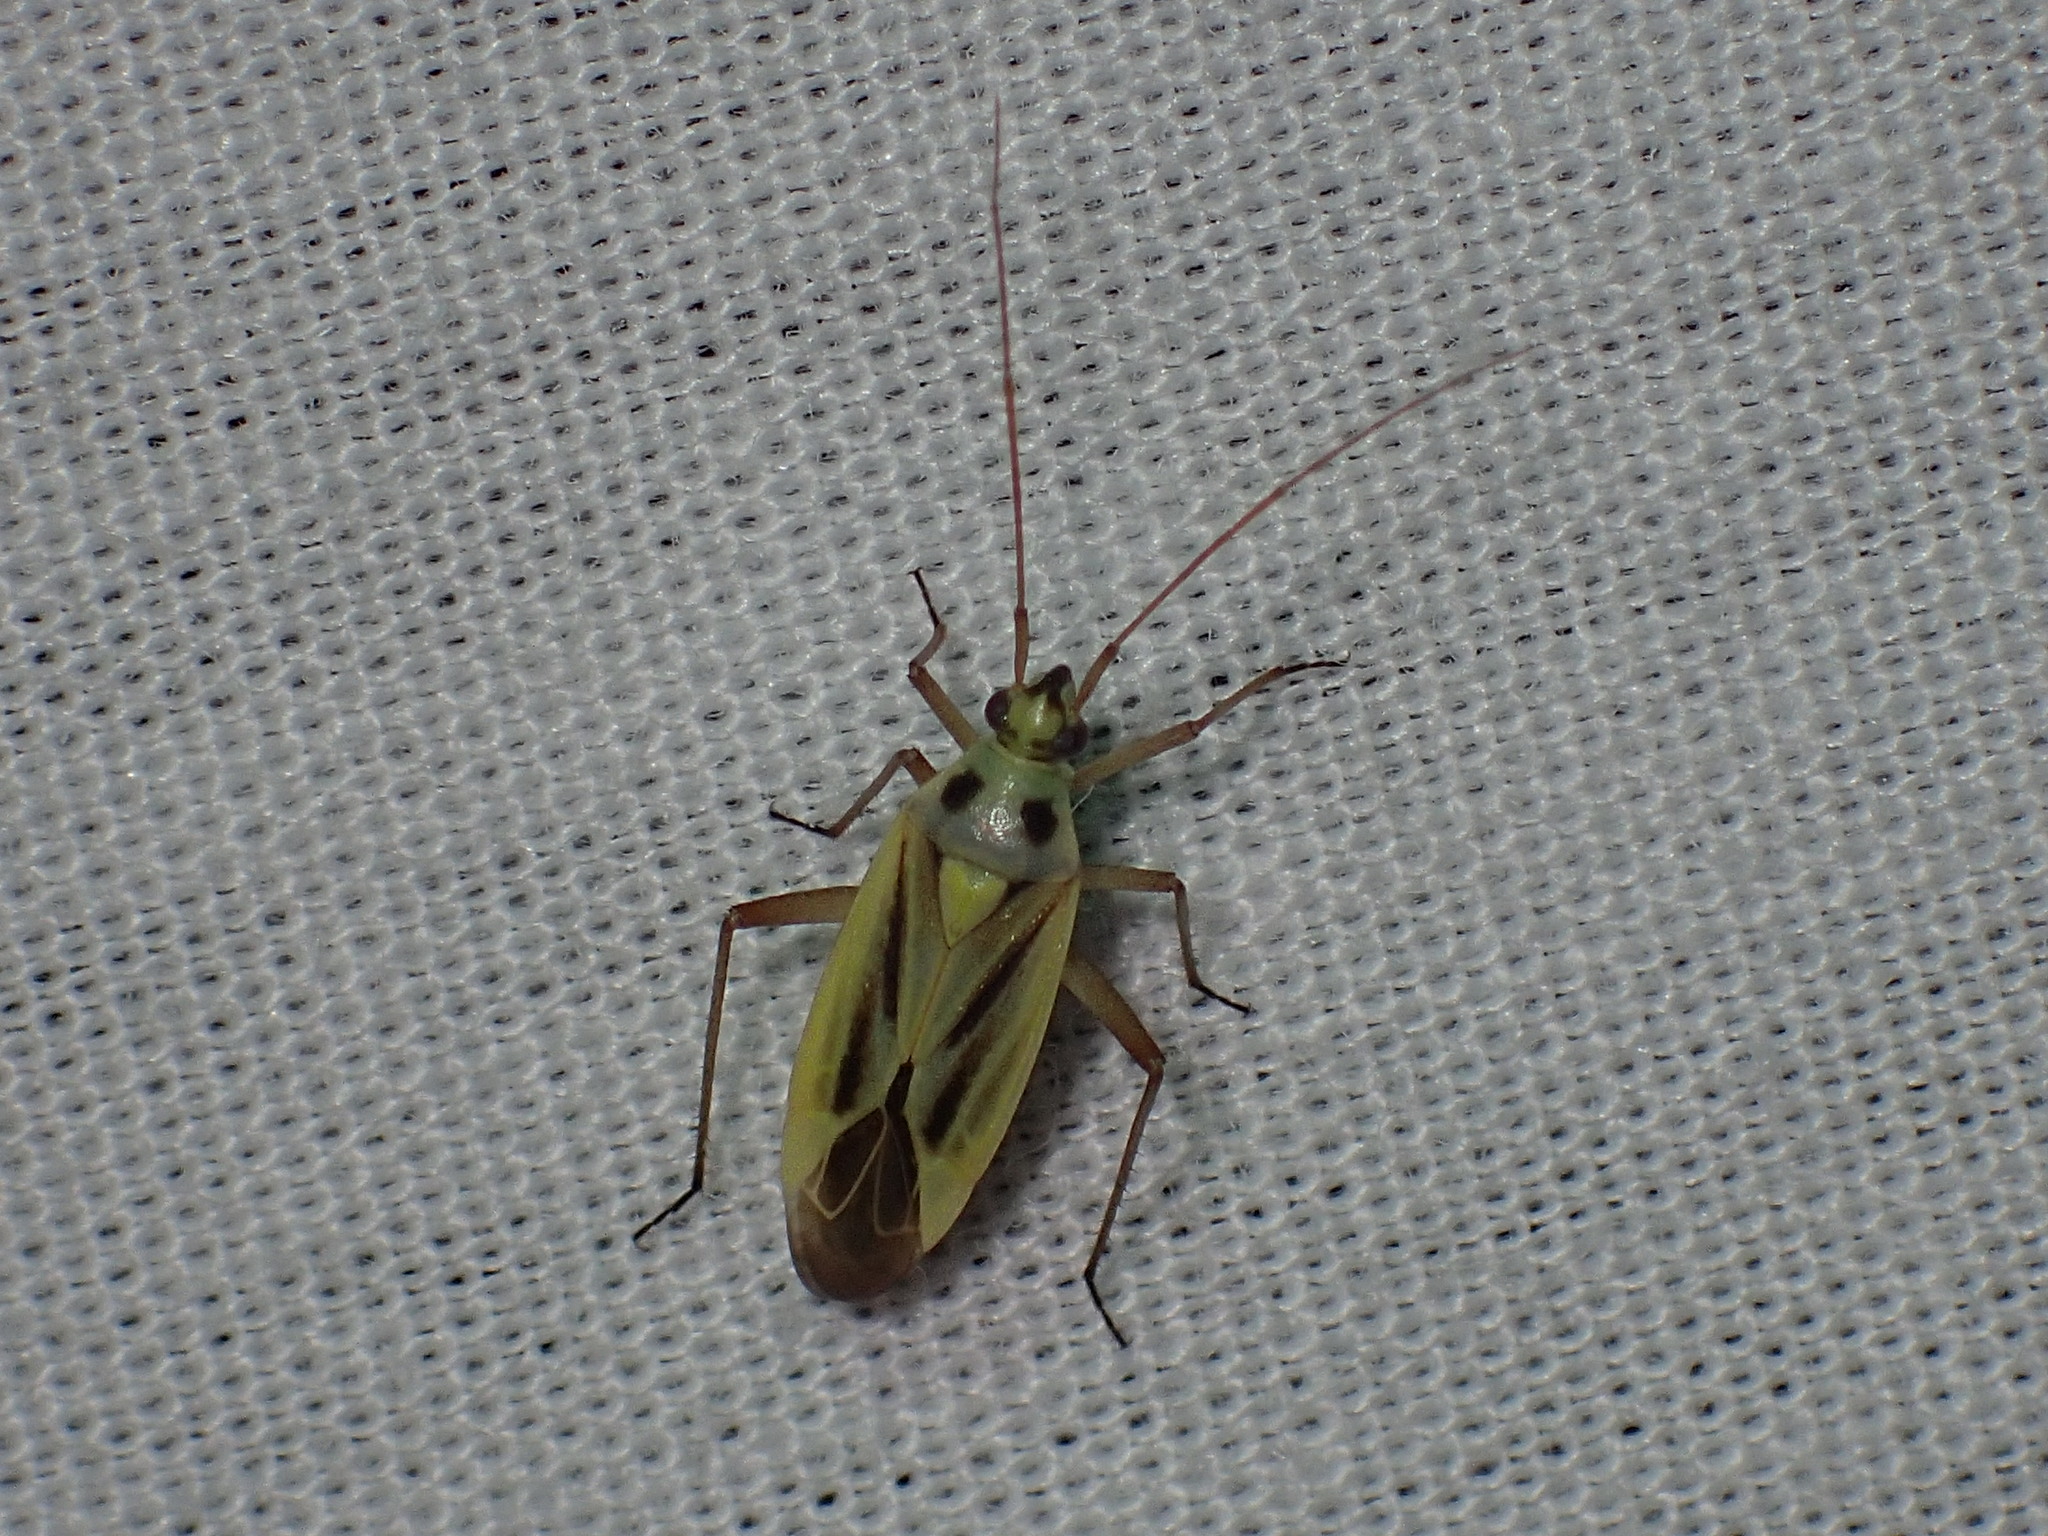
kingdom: Animalia
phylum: Arthropoda
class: Insecta
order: Hemiptera
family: Miridae
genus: Stenotus
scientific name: Stenotus binotatus
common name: Plant bug
